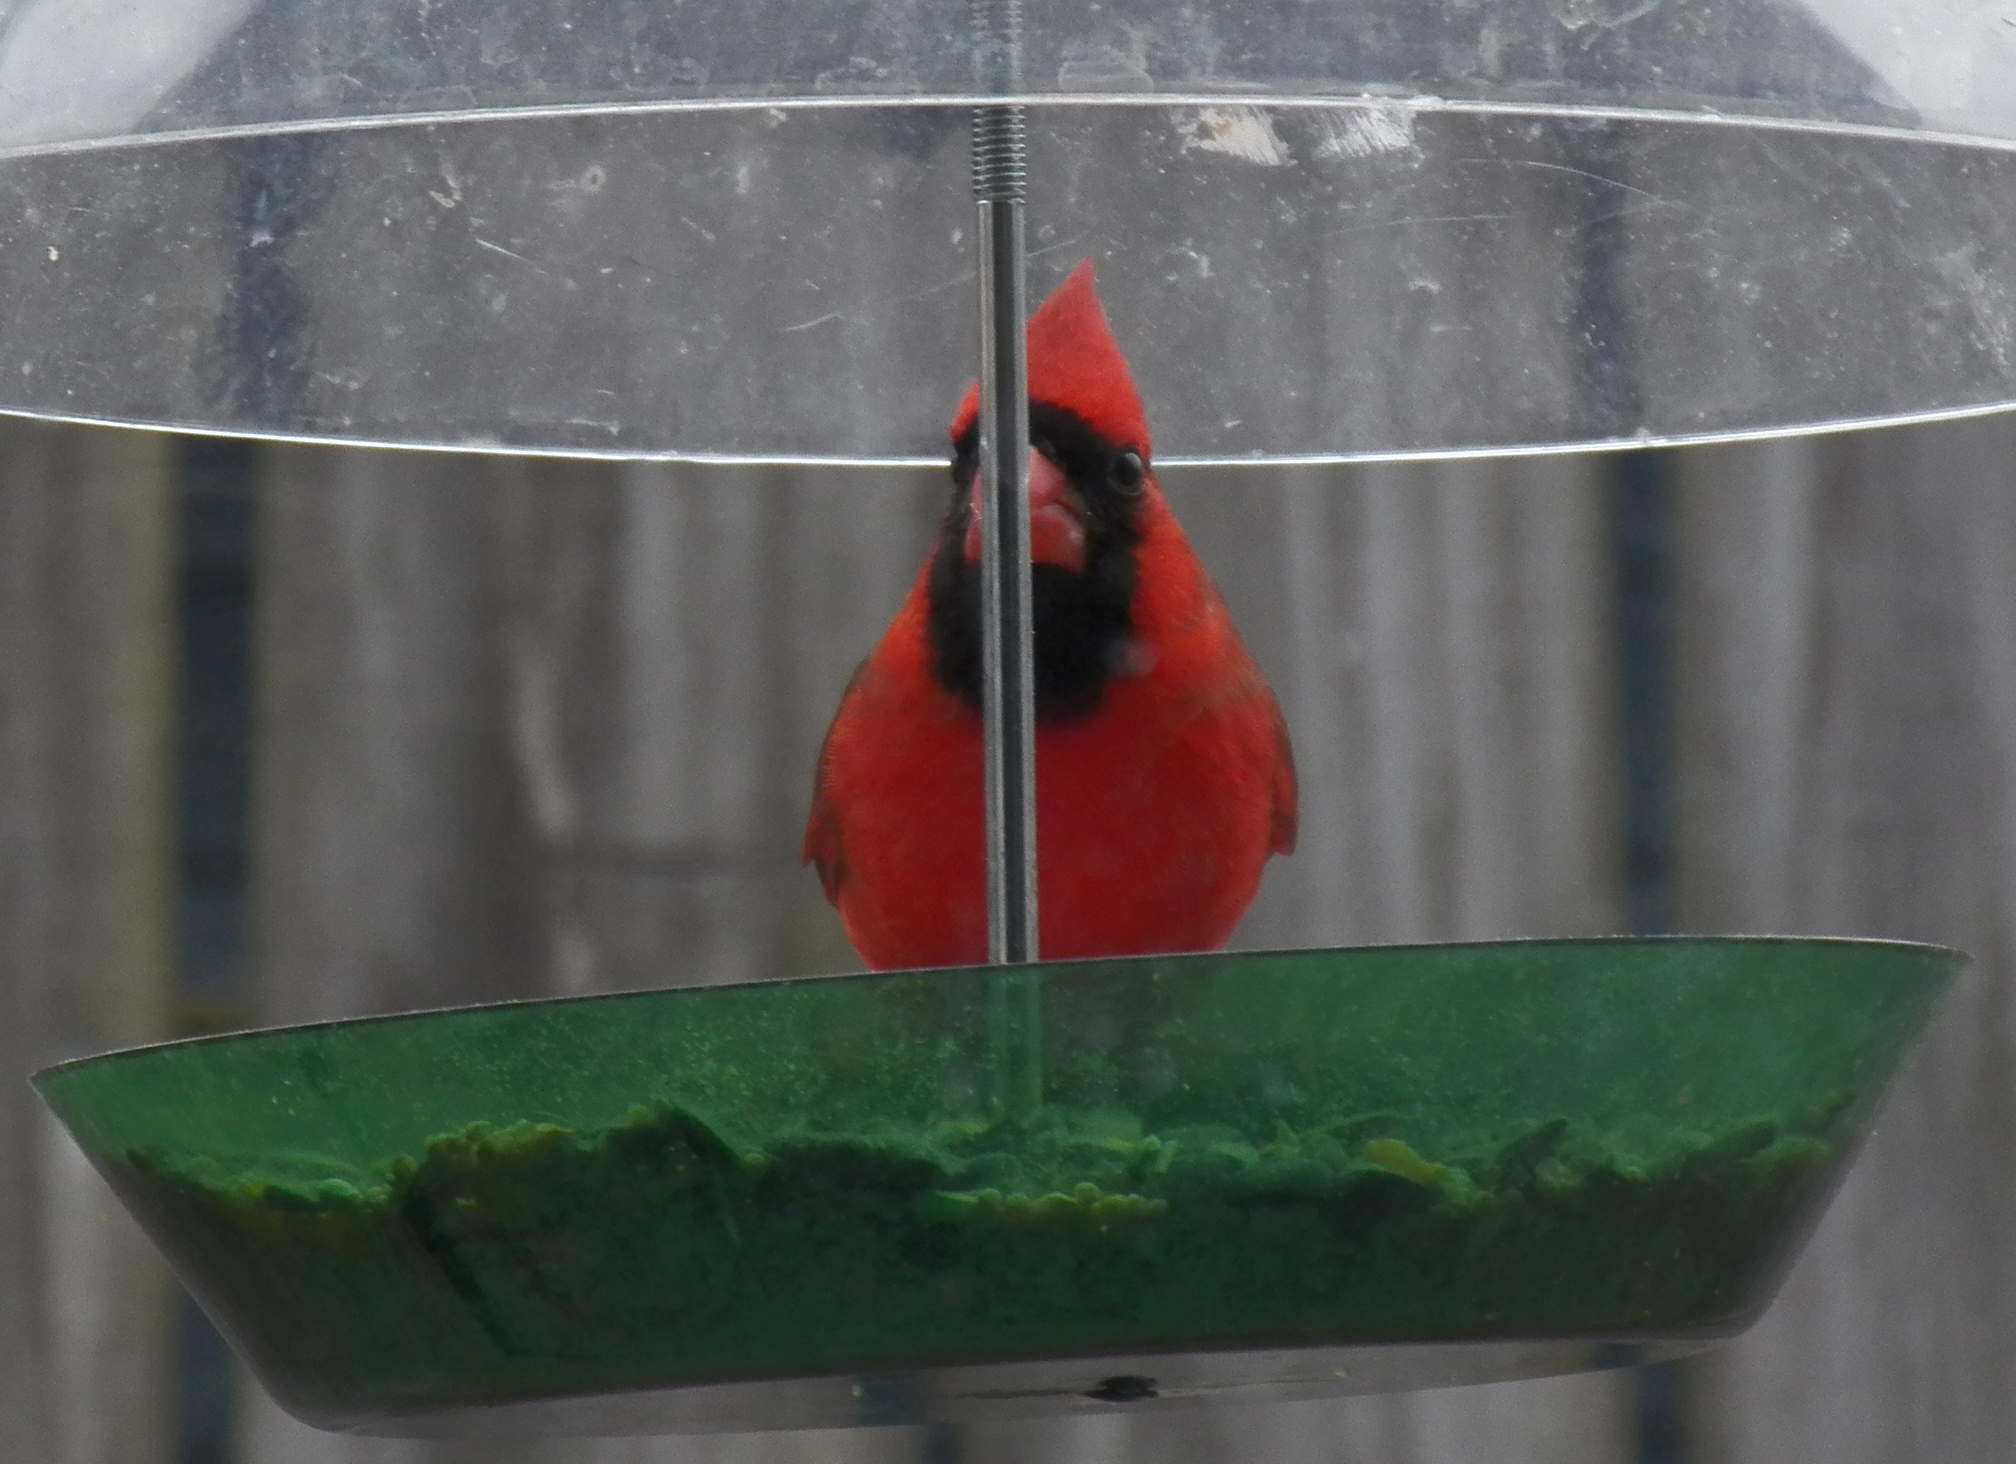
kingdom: Animalia
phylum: Chordata
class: Aves
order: Passeriformes
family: Cardinalidae
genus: Cardinalis
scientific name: Cardinalis cardinalis
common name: Northern cardinal
